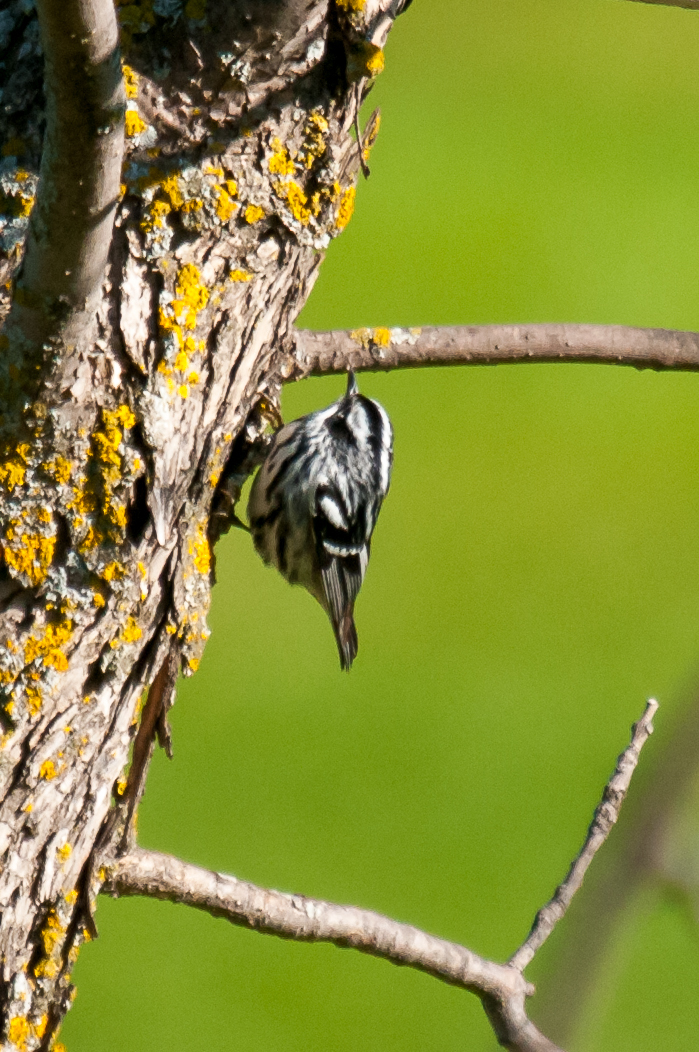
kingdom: Animalia
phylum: Chordata
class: Aves
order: Passeriformes
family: Parulidae
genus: Mniotilta
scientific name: Mniotilta varia
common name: Black-and-white warbler
